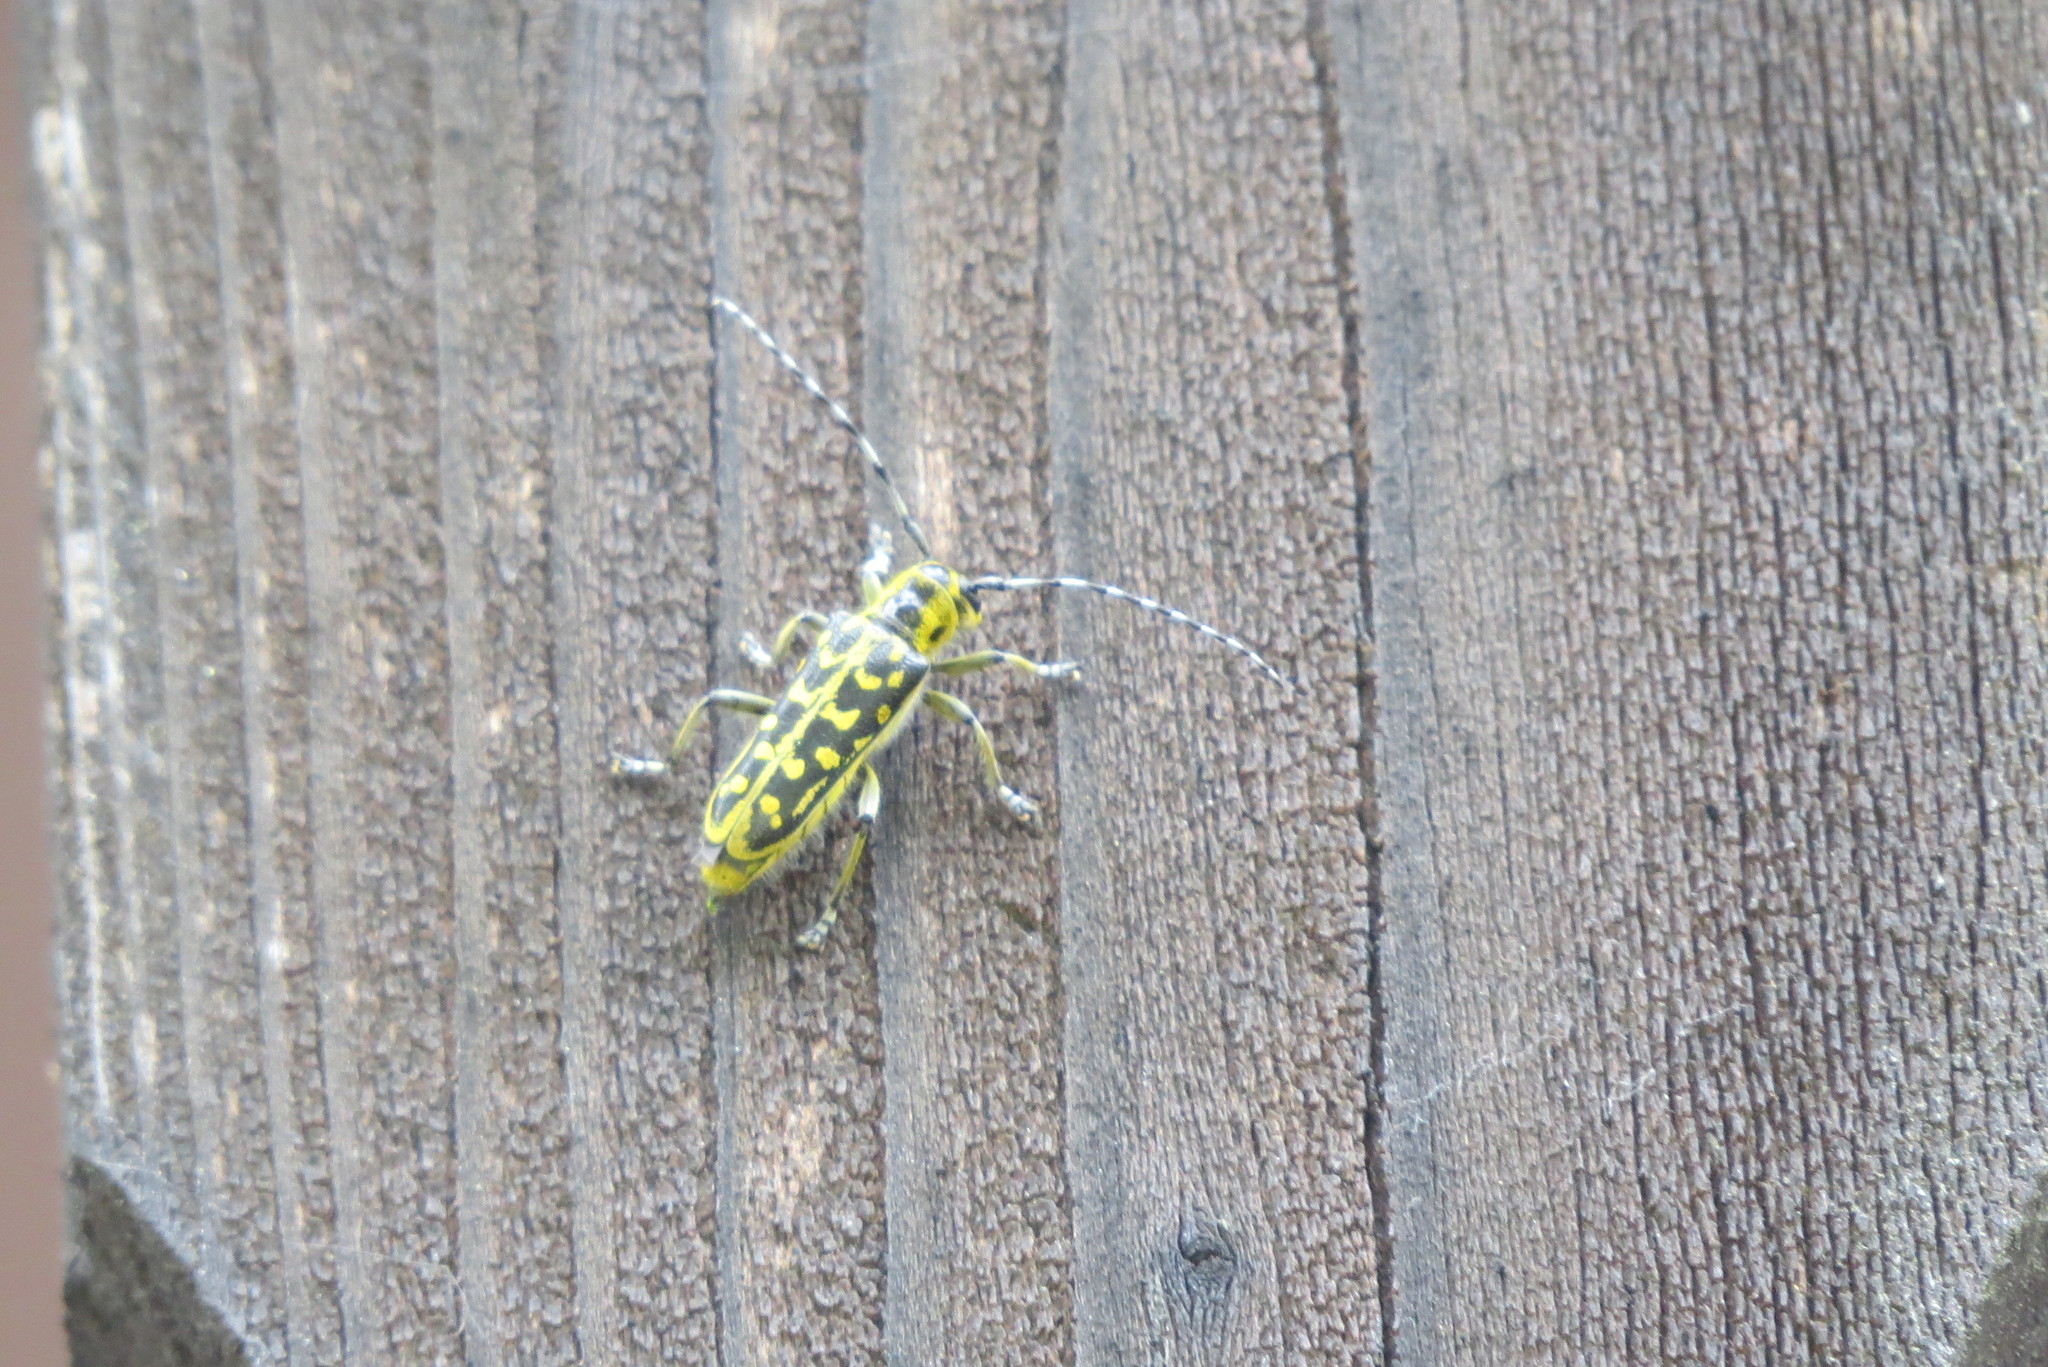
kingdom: Animalia
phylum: Arthropoda
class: Insecta
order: Coleoptera
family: Cerambycidae
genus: Saperda
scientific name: Saperda scalaris
